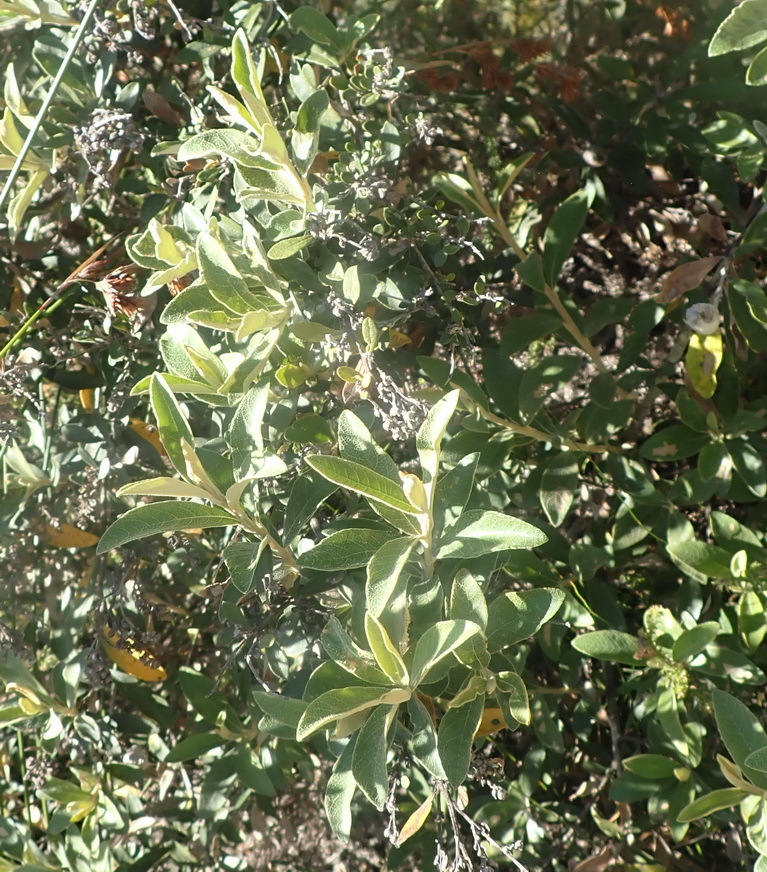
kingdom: Plantae
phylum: Tracheophyta
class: Magnoliopsida
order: Asterales
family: Asteraceae
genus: Tarchonanthus
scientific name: Tarchonanthus littoralis
